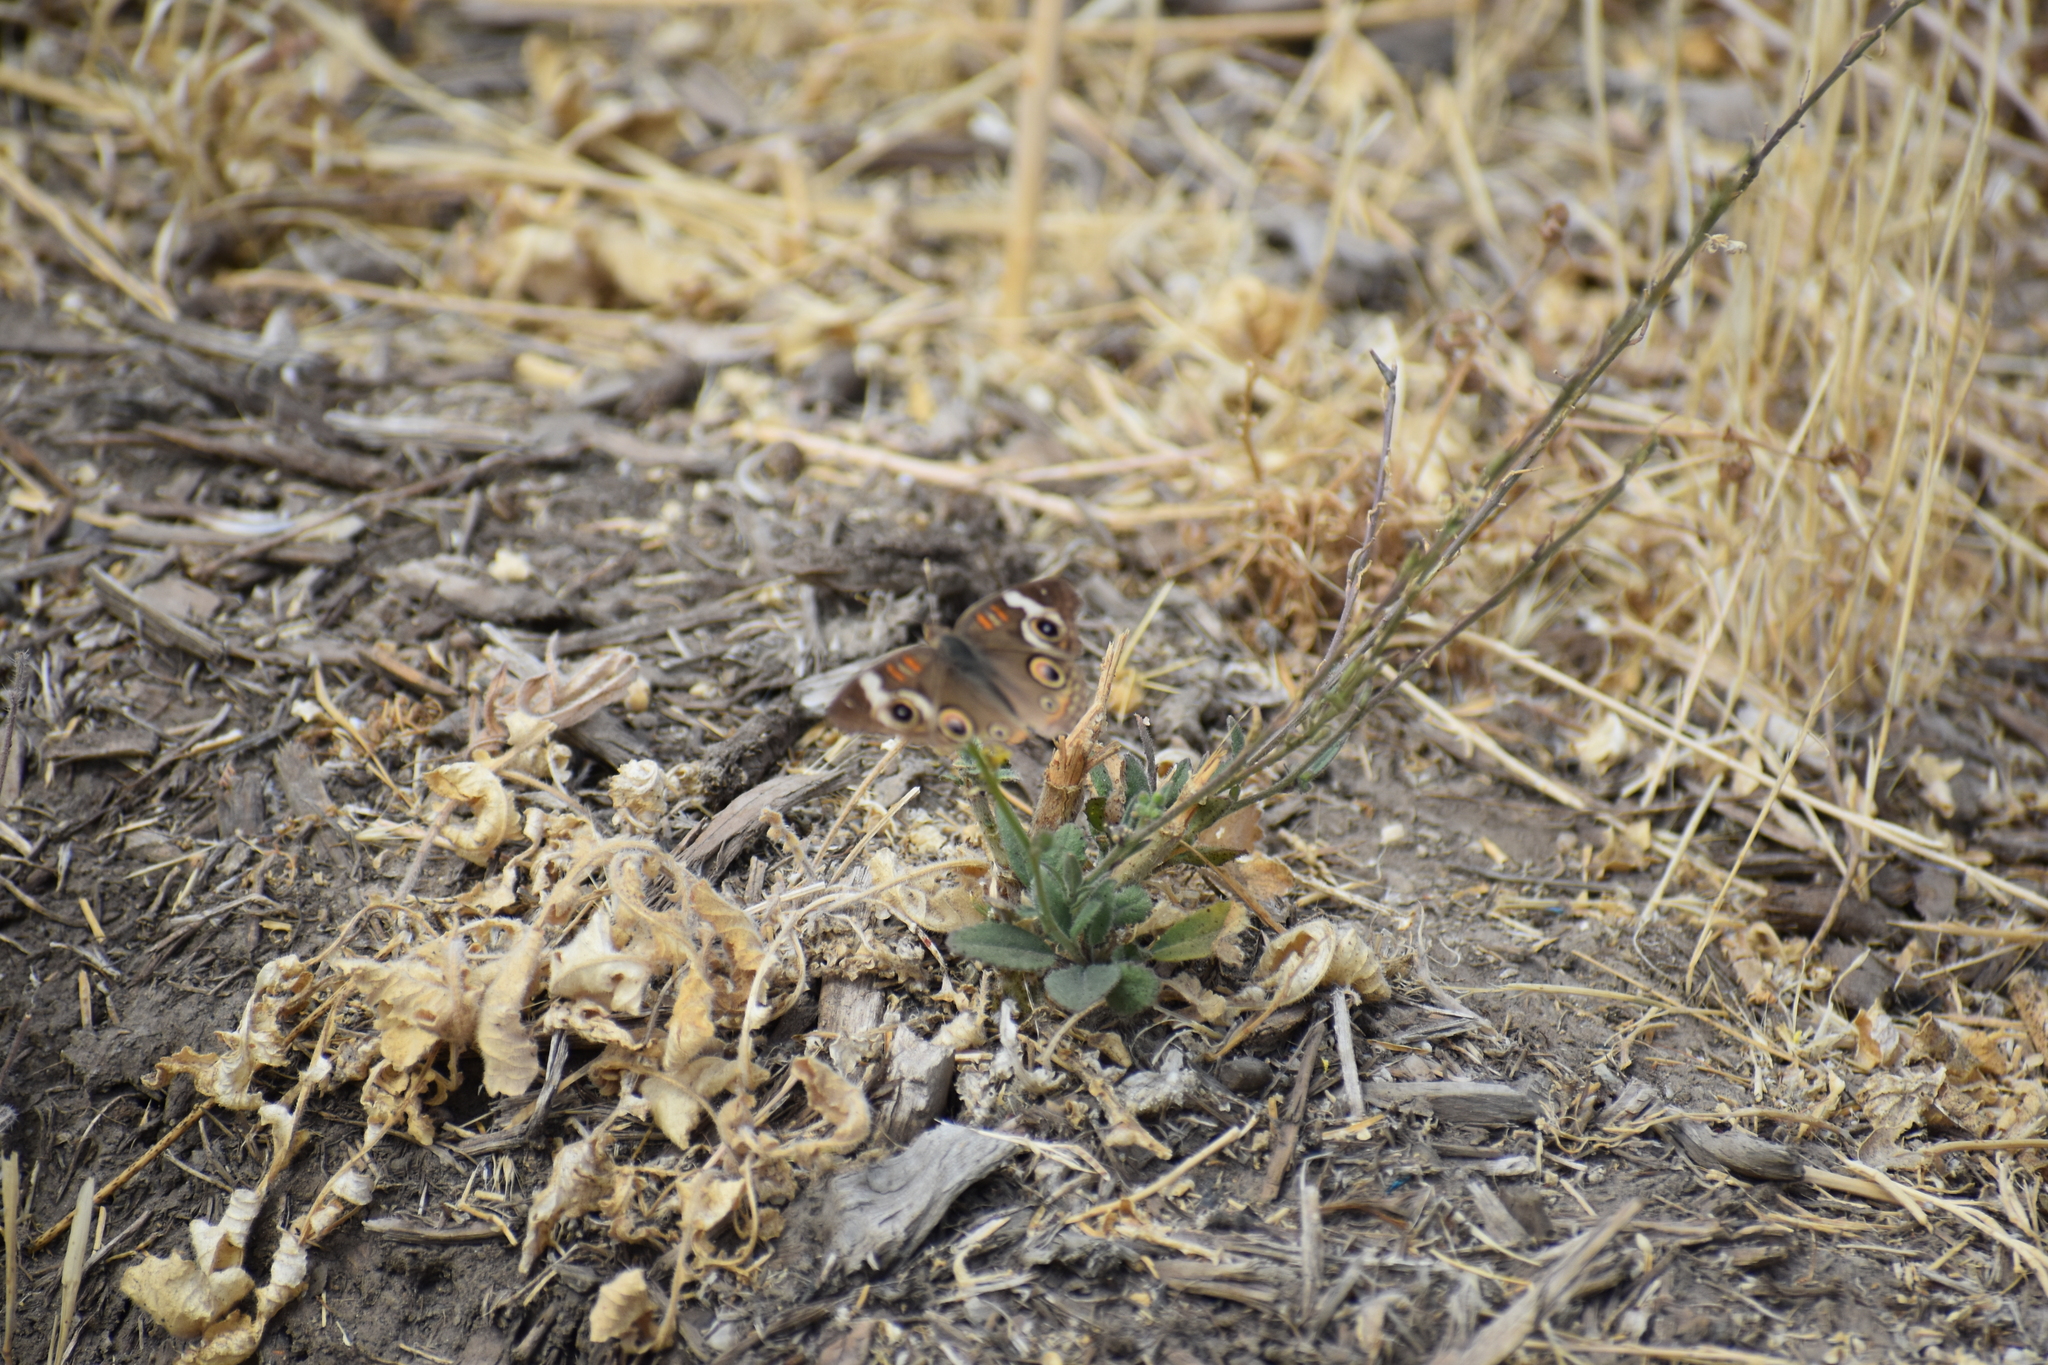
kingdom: Animalia
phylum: Arthropoda
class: Insecta
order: Lepidoptera
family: Nymphalidae
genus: Junonia
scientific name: Junonia grisea
